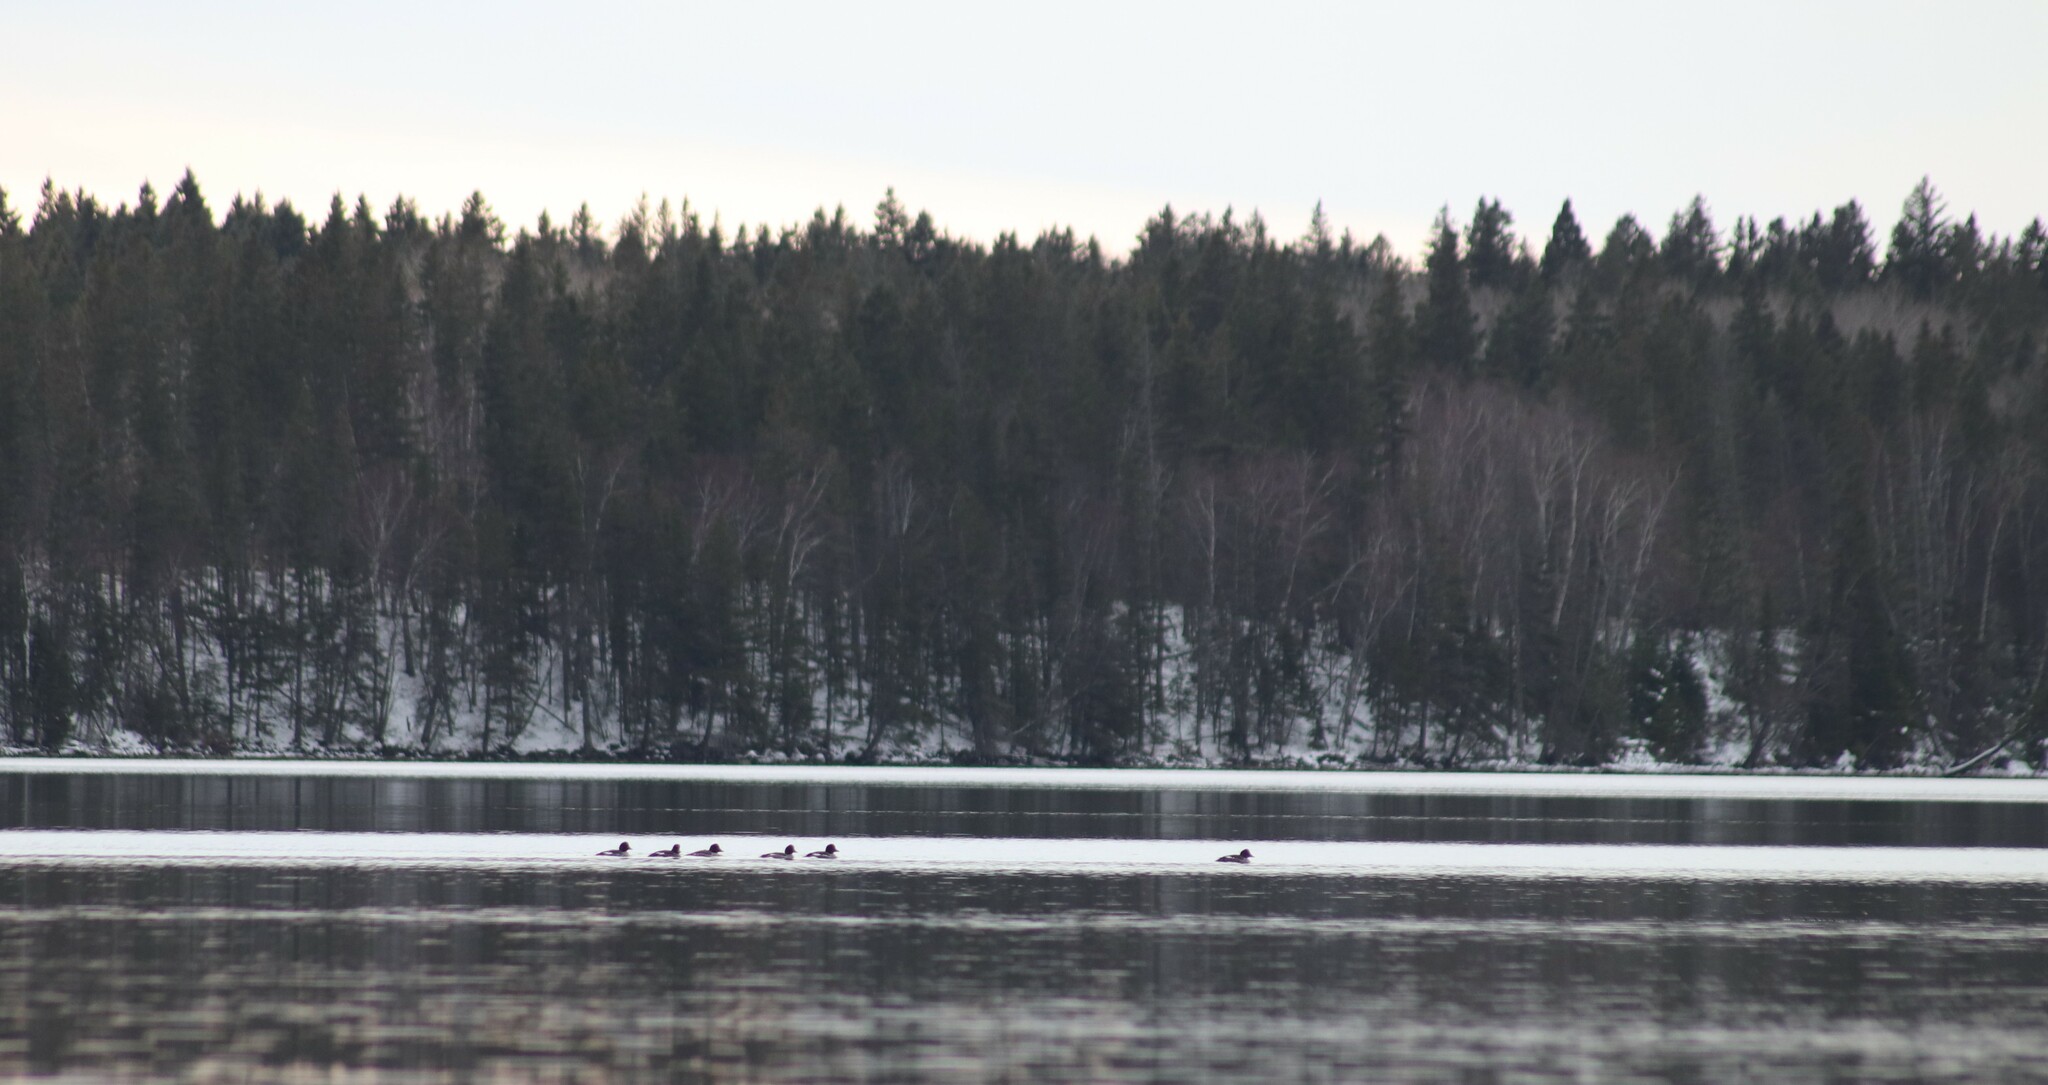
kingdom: Animalia
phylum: Chordata
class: Aves
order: Anseriformes
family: Anatidae
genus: Bucephala
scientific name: Bucephala clangula
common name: Common goldeneye
